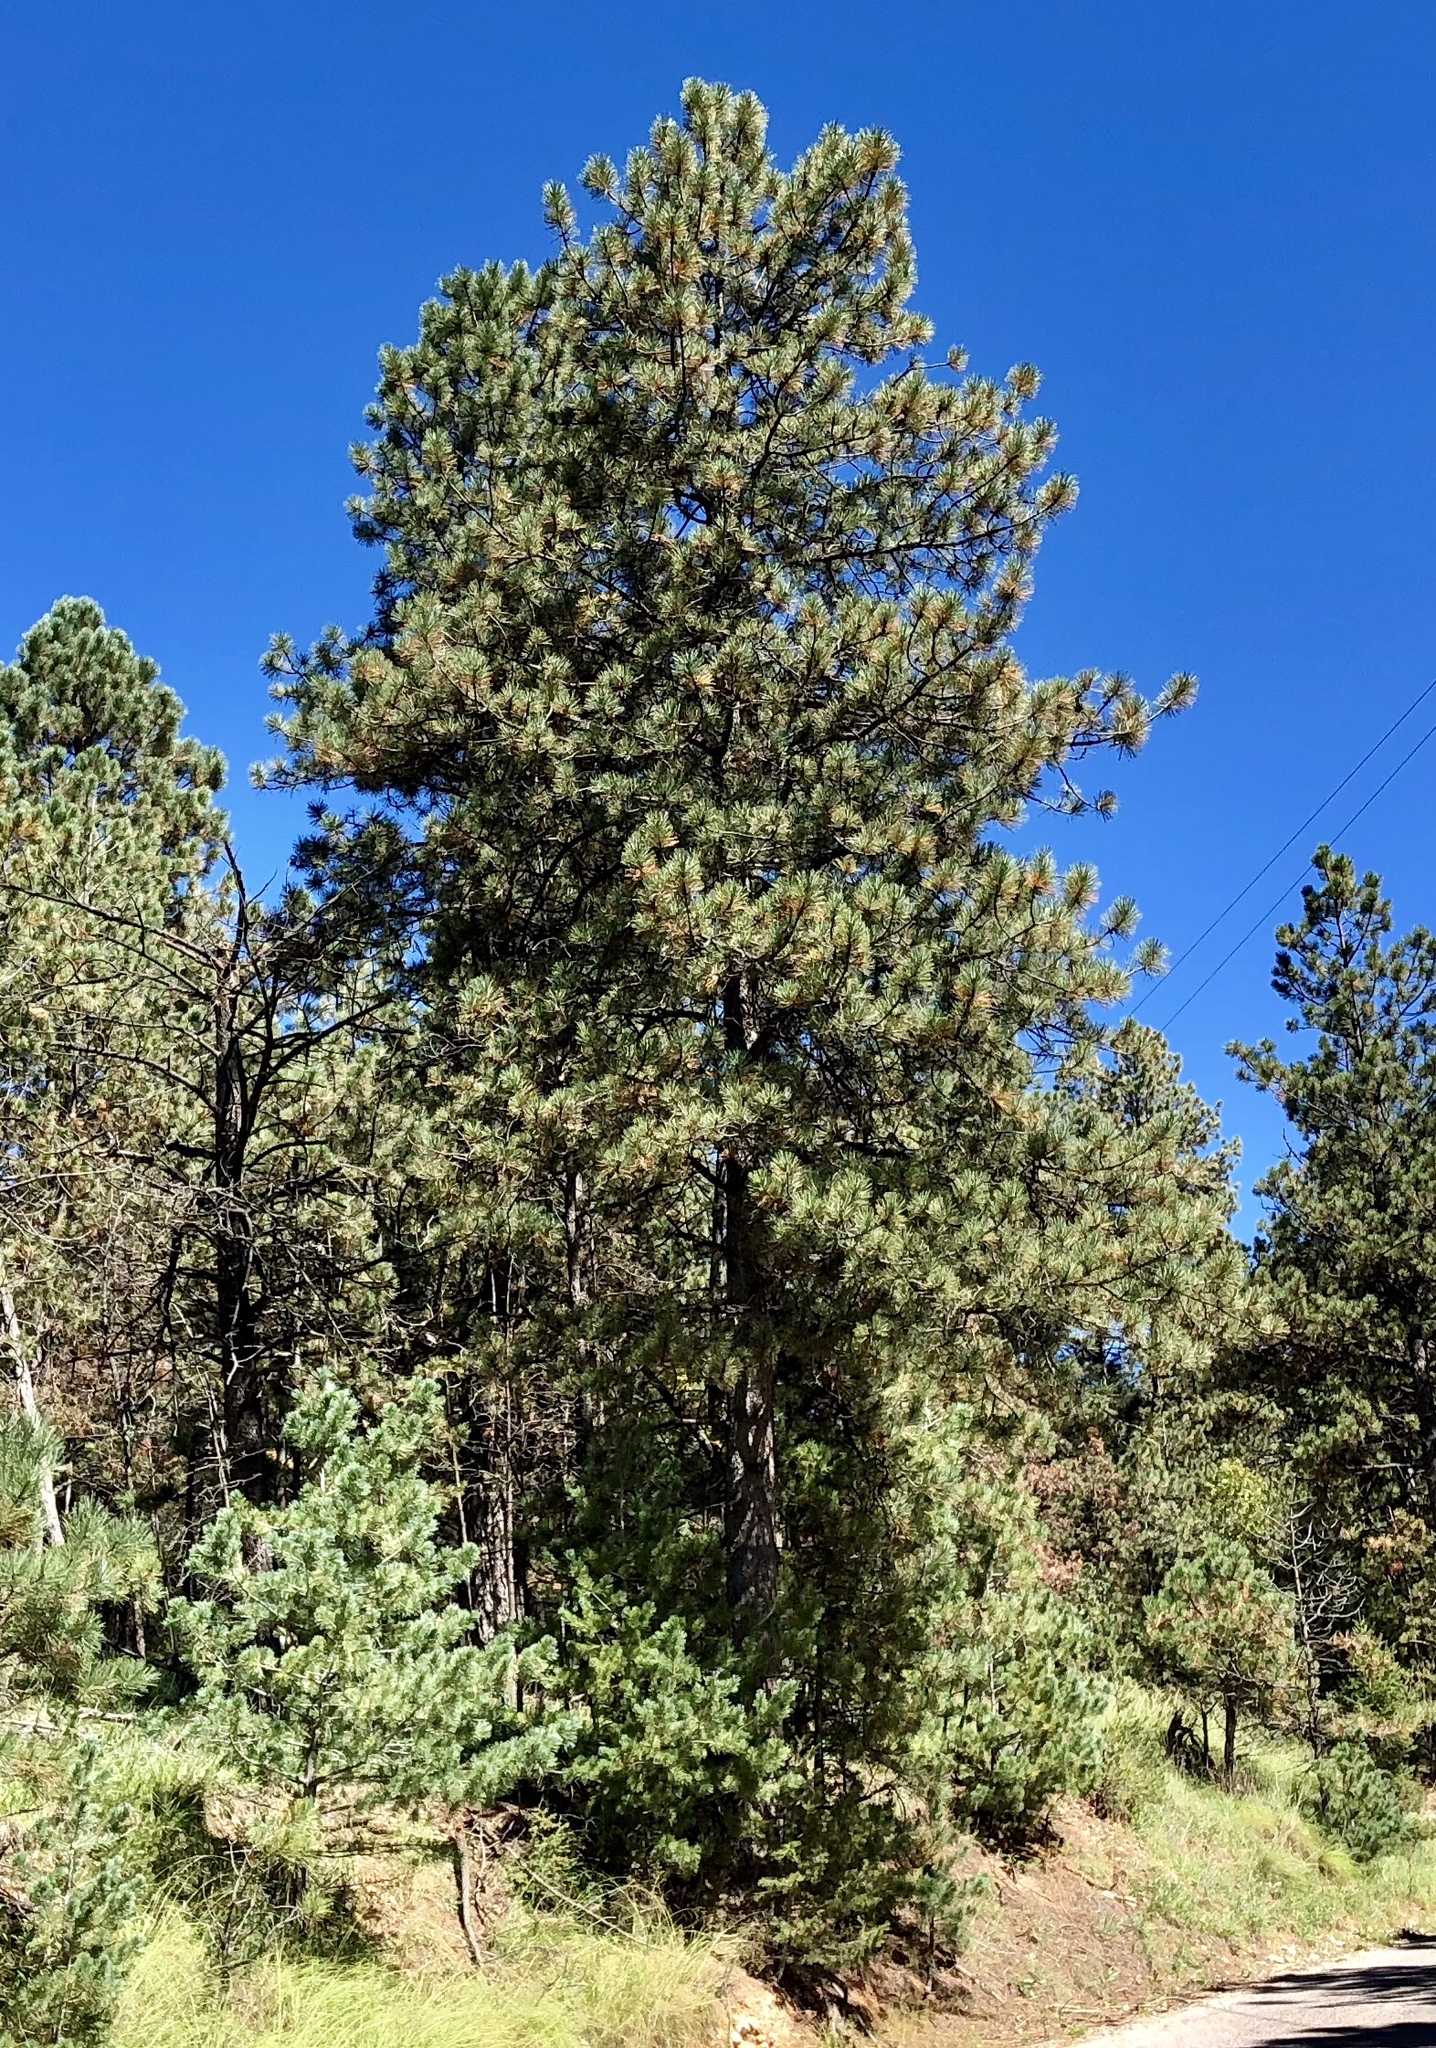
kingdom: Plantae
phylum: Tracheophyta
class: Pinopsida
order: Pinales
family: Pinaceae
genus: Pinus
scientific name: Pinus ponderosa
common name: Western yellow-pine
